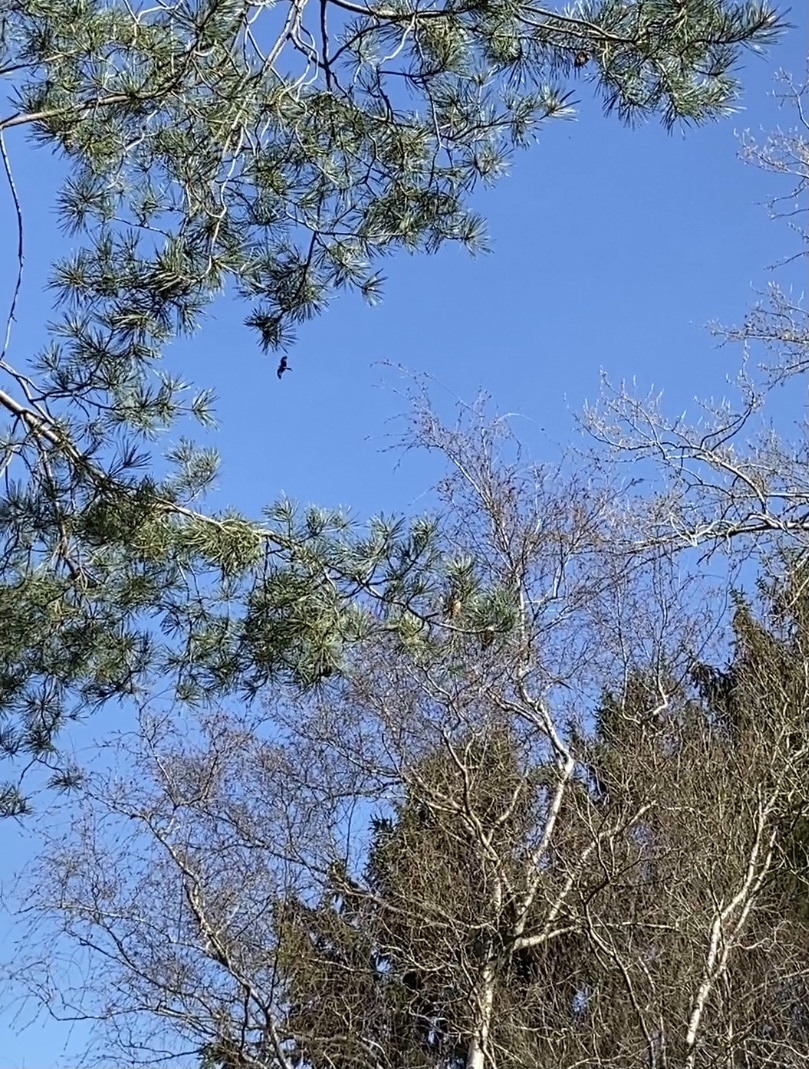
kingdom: Animalia
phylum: Chordata
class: Aves
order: Accipitriformes
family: Accipitridae
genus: Milvus
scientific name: Milvus milvus
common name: Red kite
